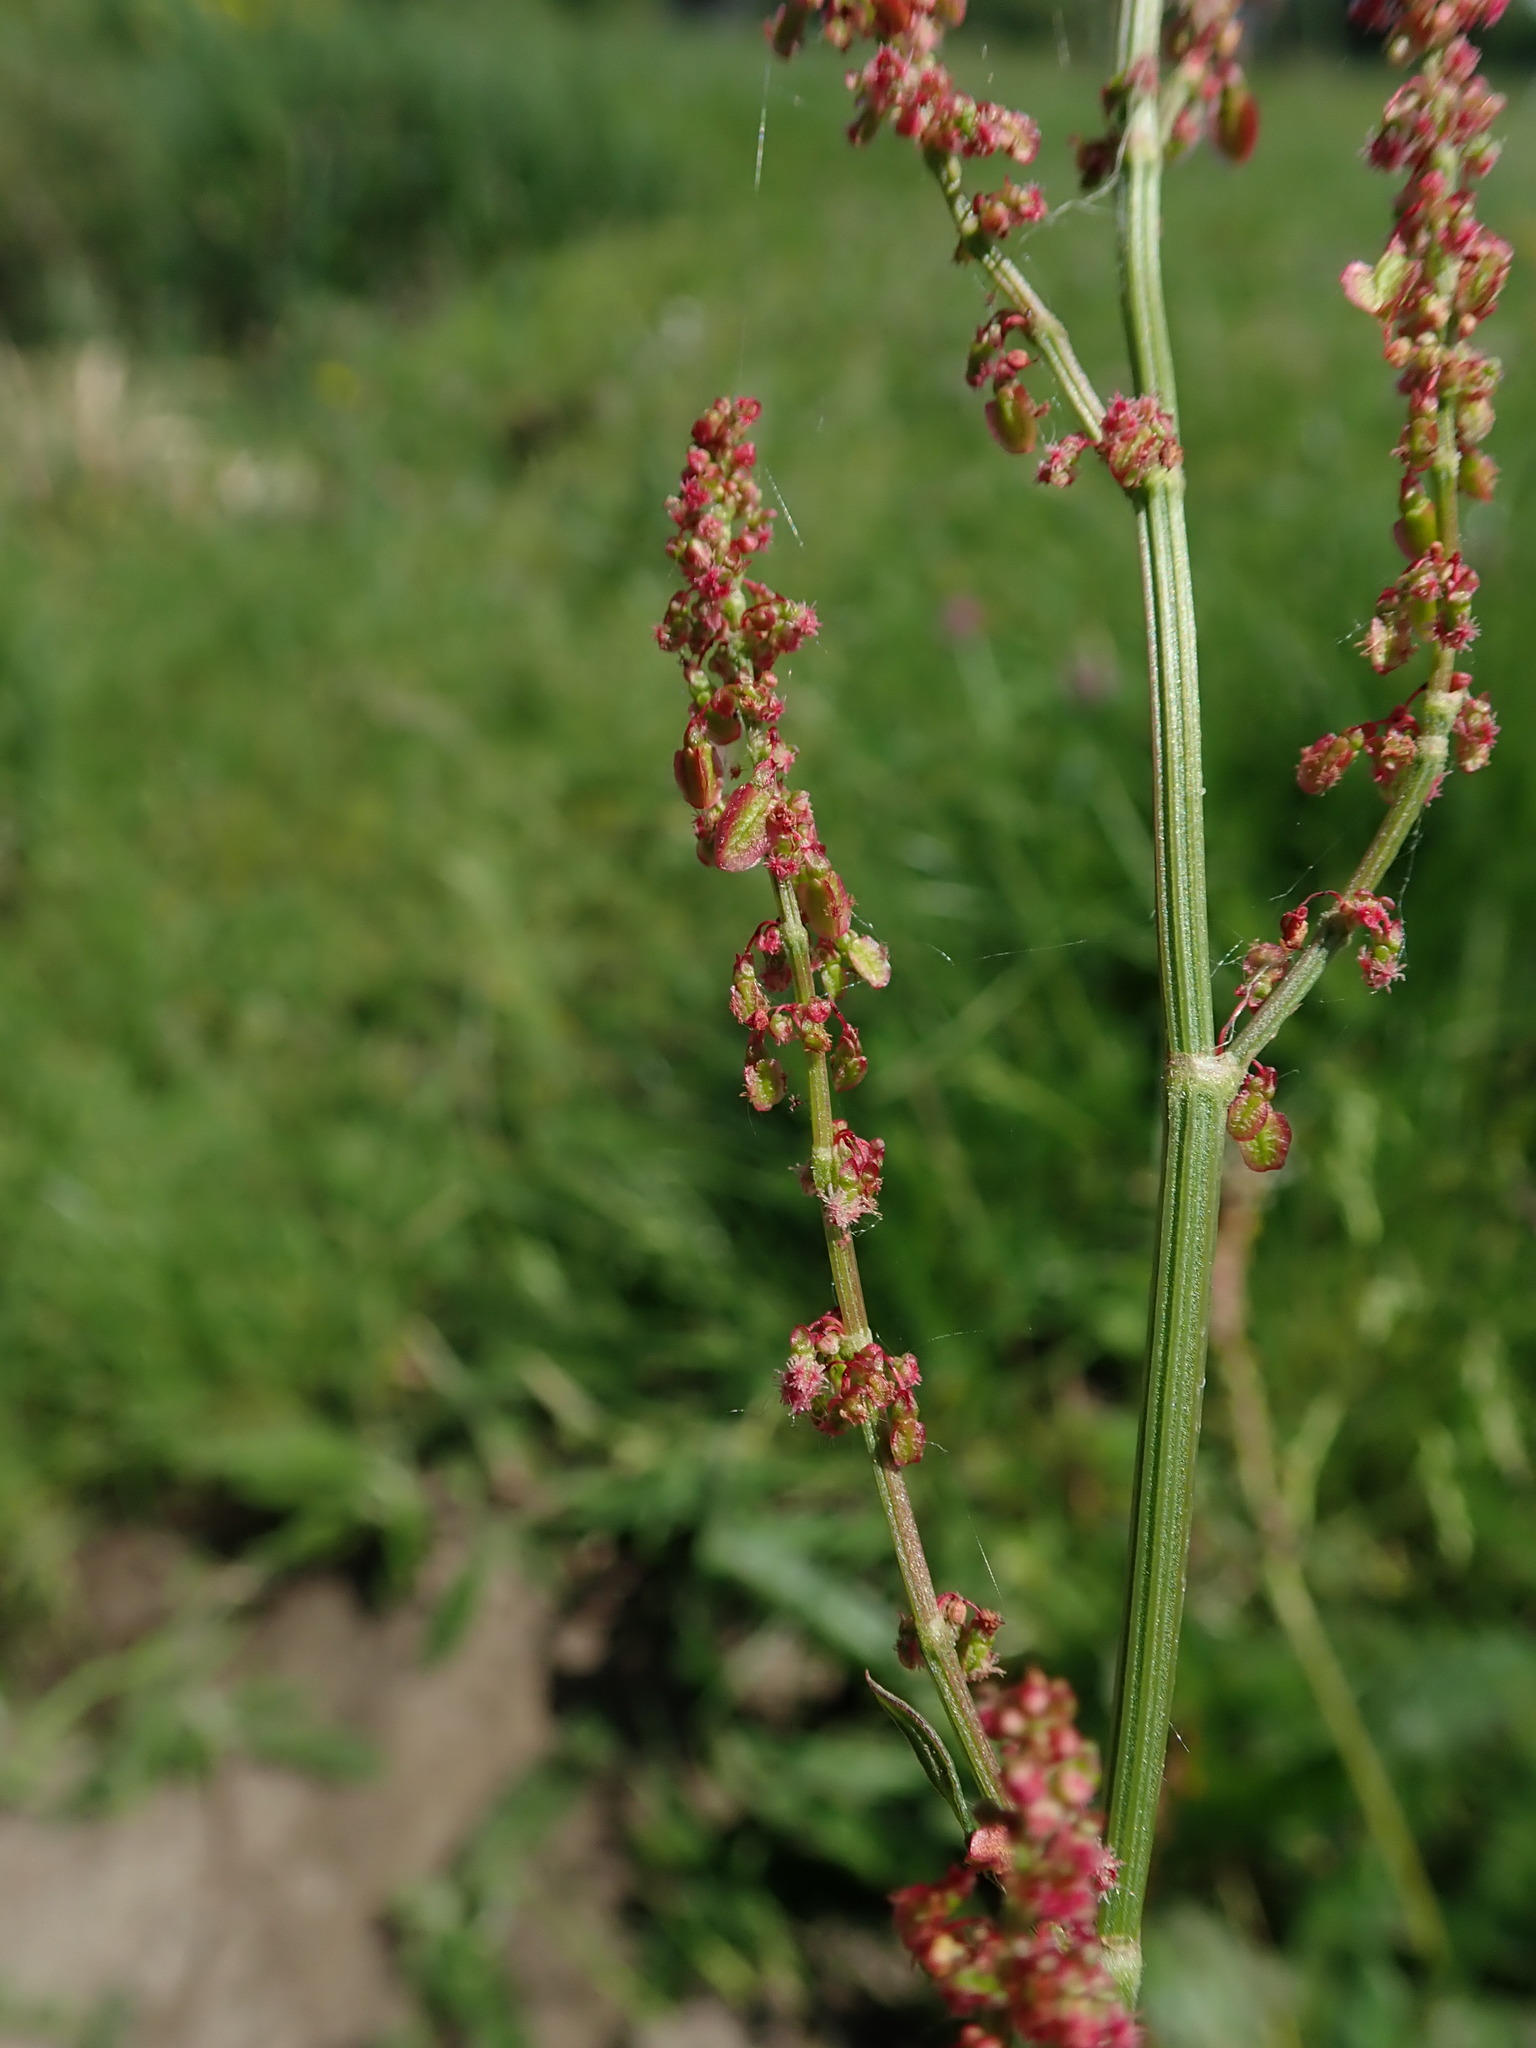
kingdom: Plantae
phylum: Tracheophyta
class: Magnoliopsida
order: Caryophyllales
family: Polygonaceae
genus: Rumex
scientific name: Rumex acetosa
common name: Garden sorrel
